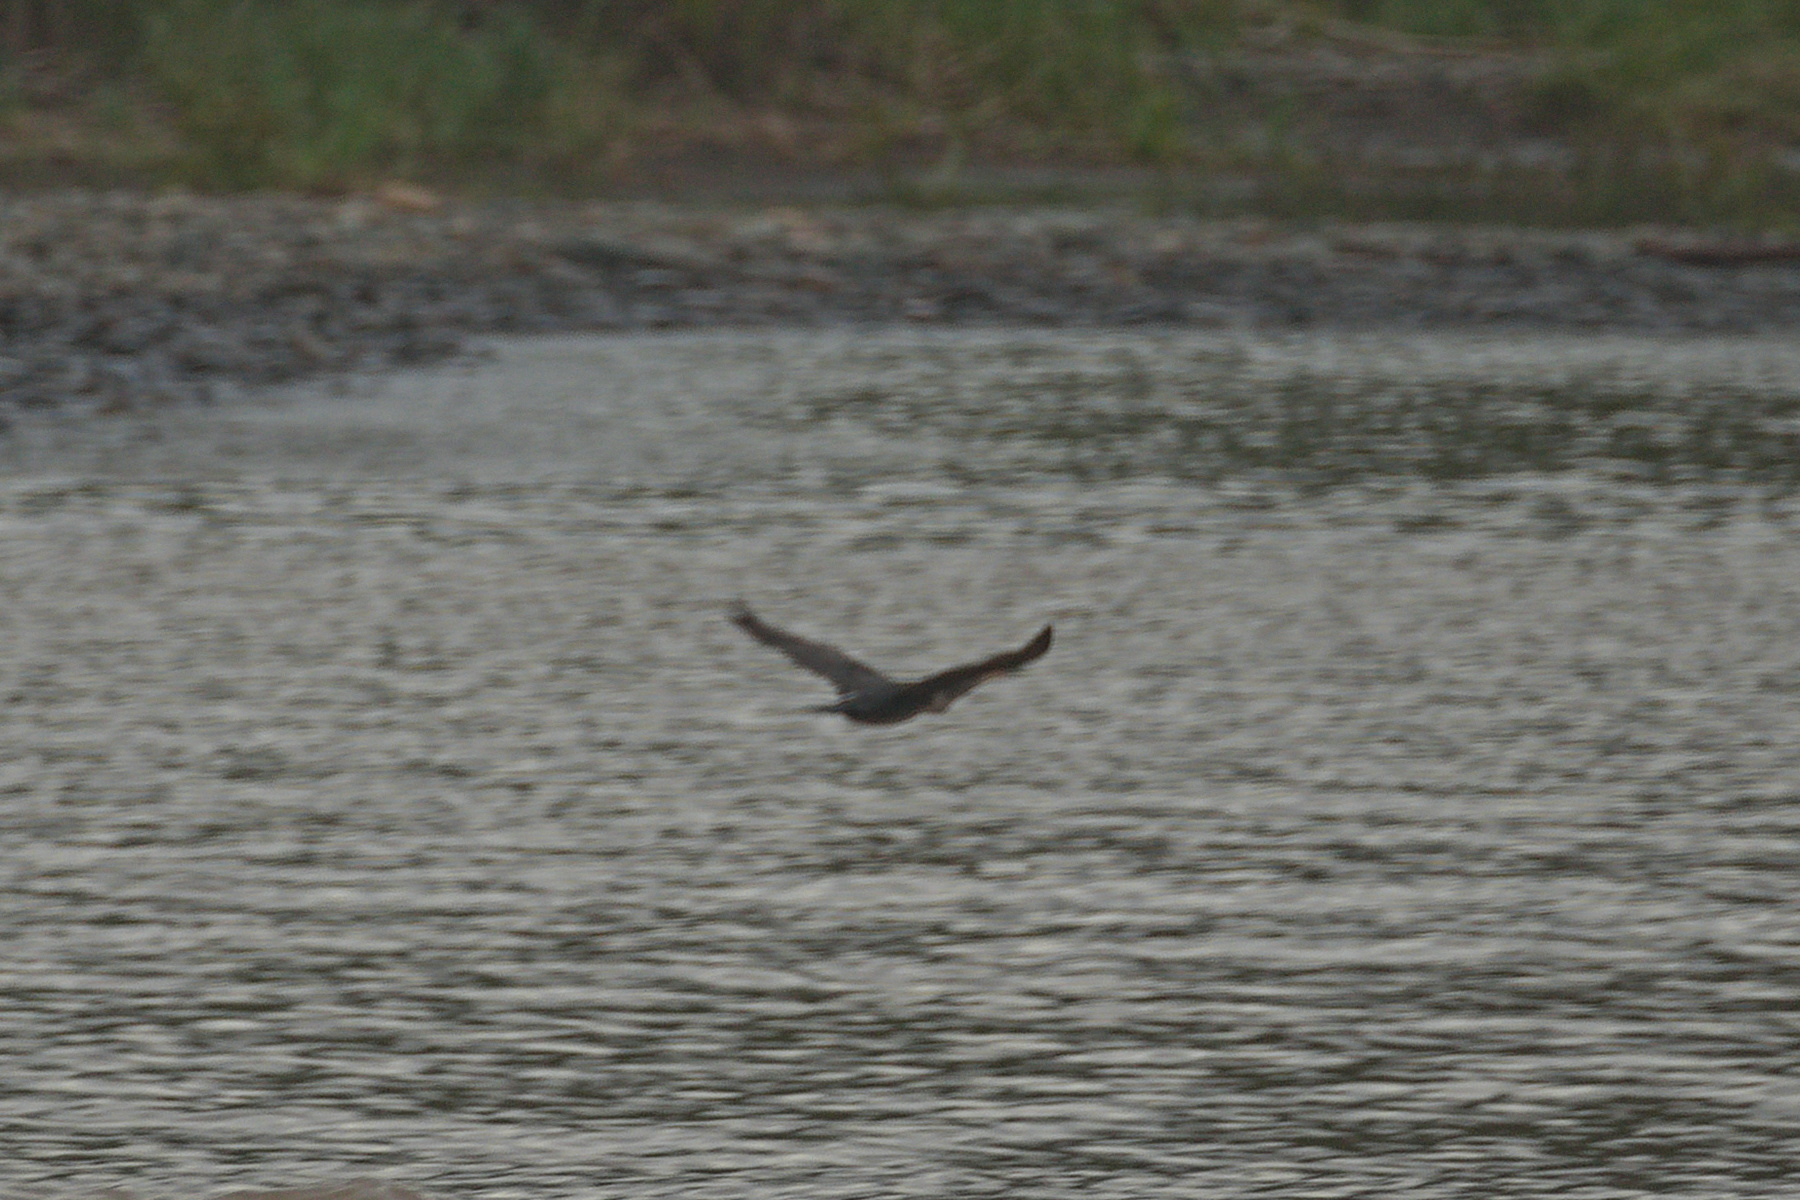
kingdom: Animalia
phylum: Chordata
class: Aves
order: Suliformes
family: Phalacrocoracidae
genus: Phalacrocorax
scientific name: Phalacrocorax brasilianus
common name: Neotropic cormorant
